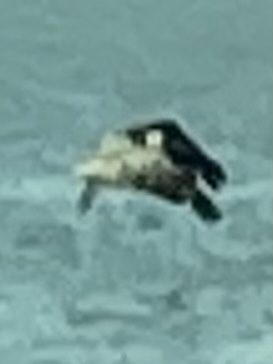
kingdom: Animalia
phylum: Chordata
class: Aves
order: Pelecaniformes
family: Pelecanidae
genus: Pelecanus
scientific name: Pelecanus occidentalis
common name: Brown pelican
